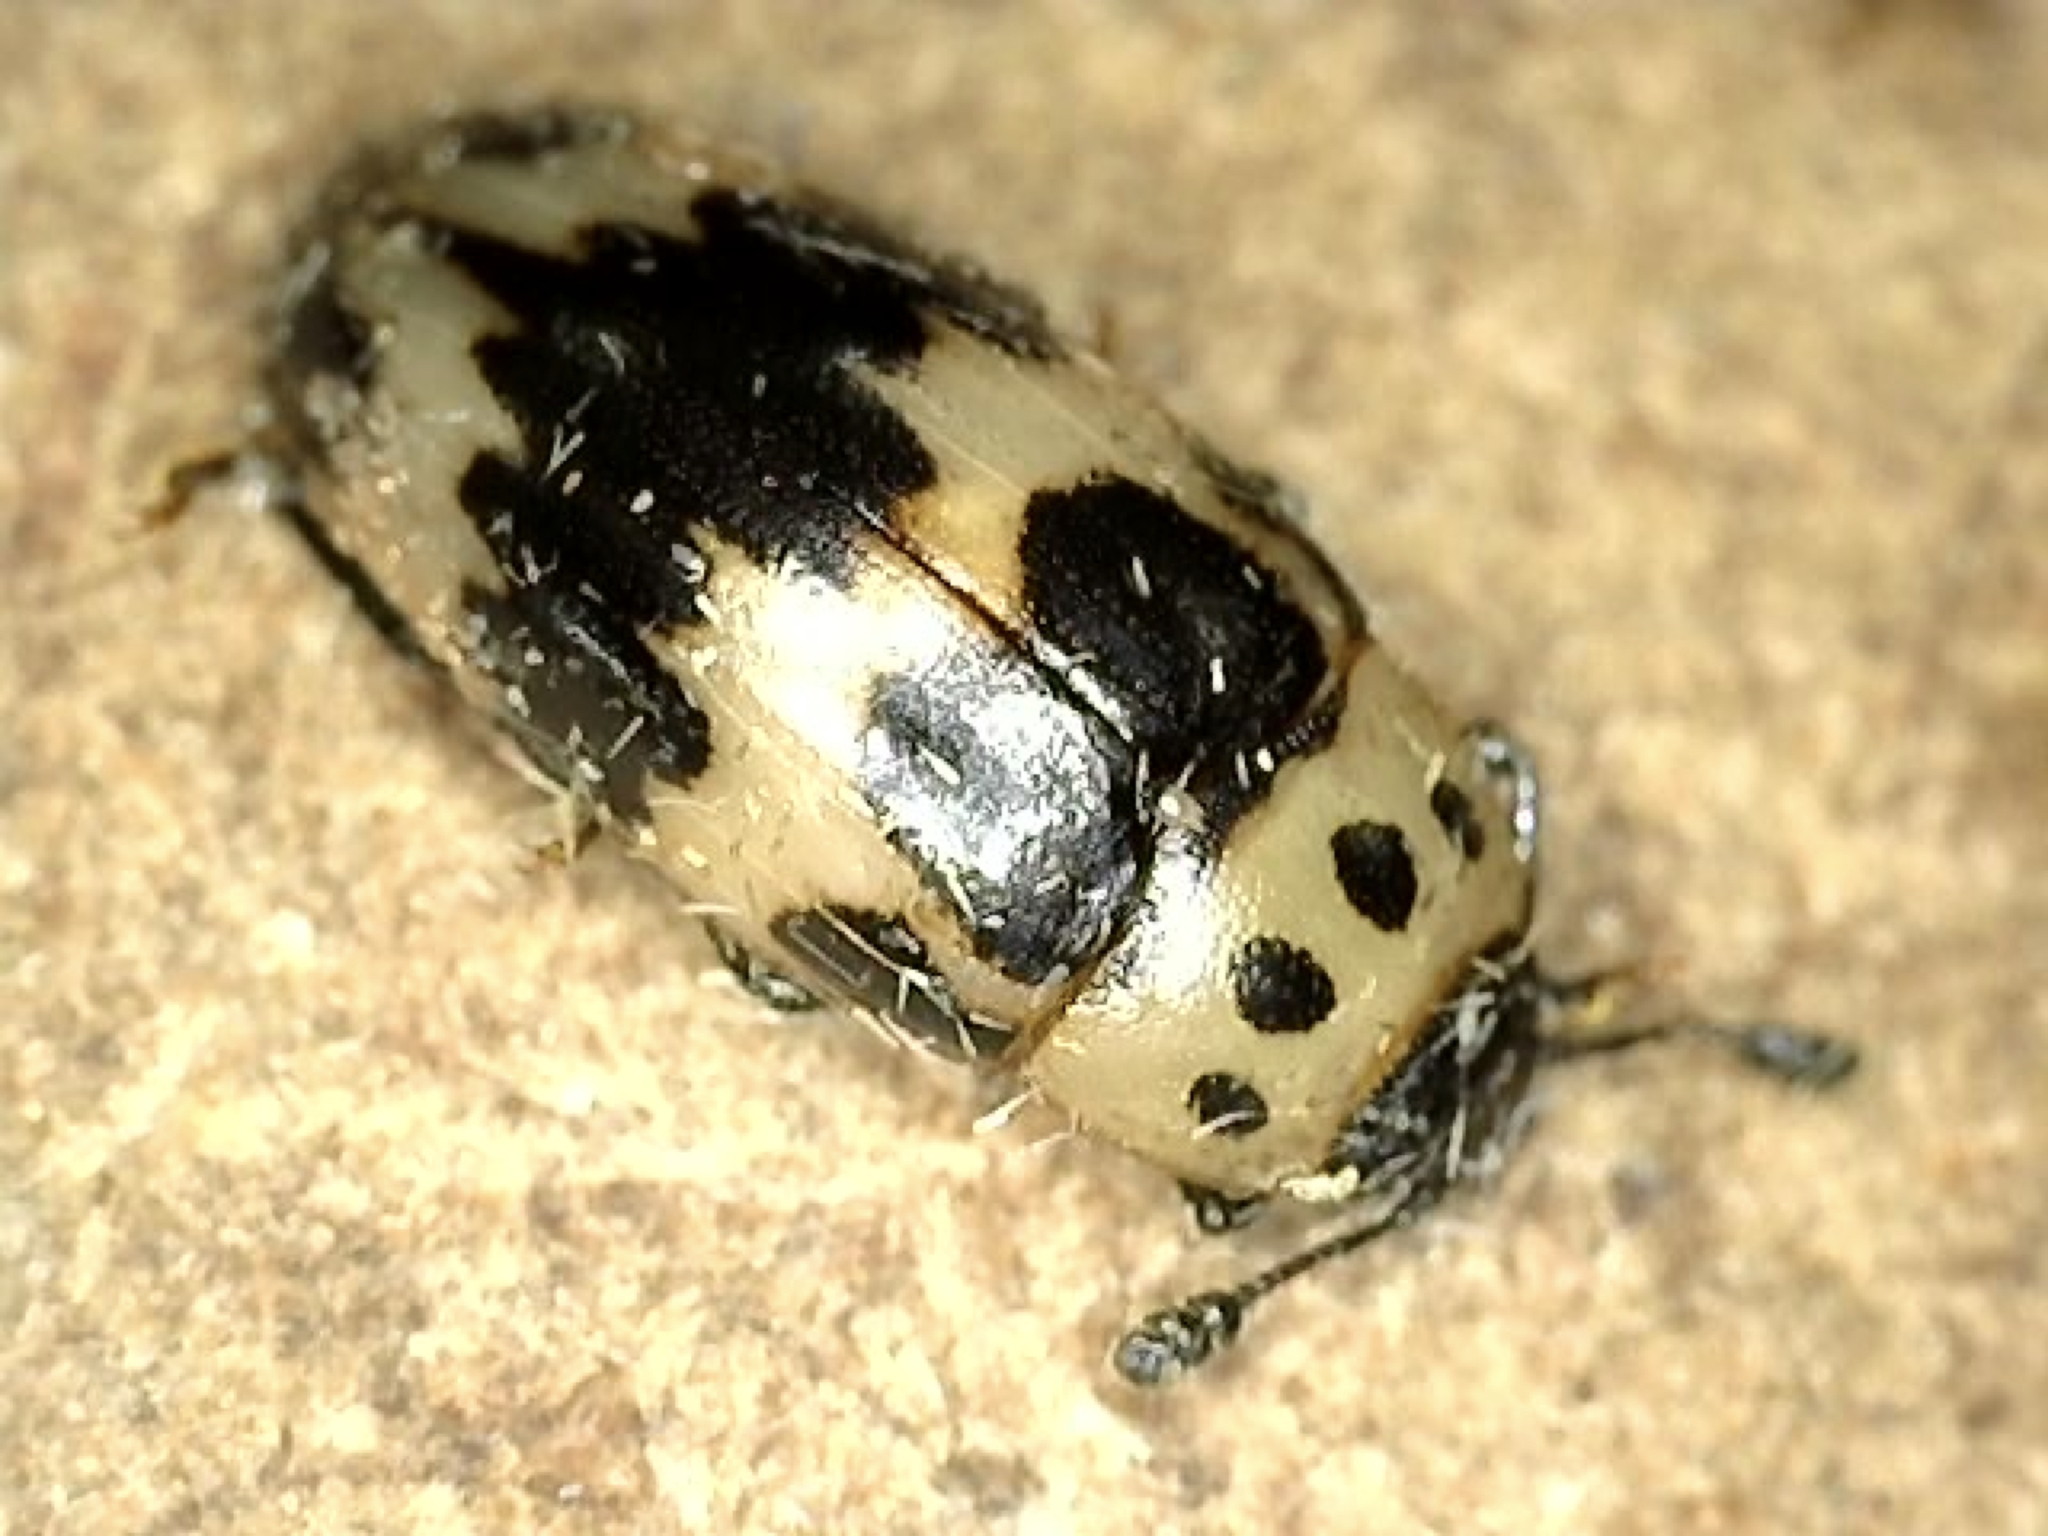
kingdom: Animalia
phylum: Arthropoda
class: Insecta
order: Coleoptera
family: Erotylidae
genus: Ischyrus
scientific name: Ischyrus quadripunctatus
